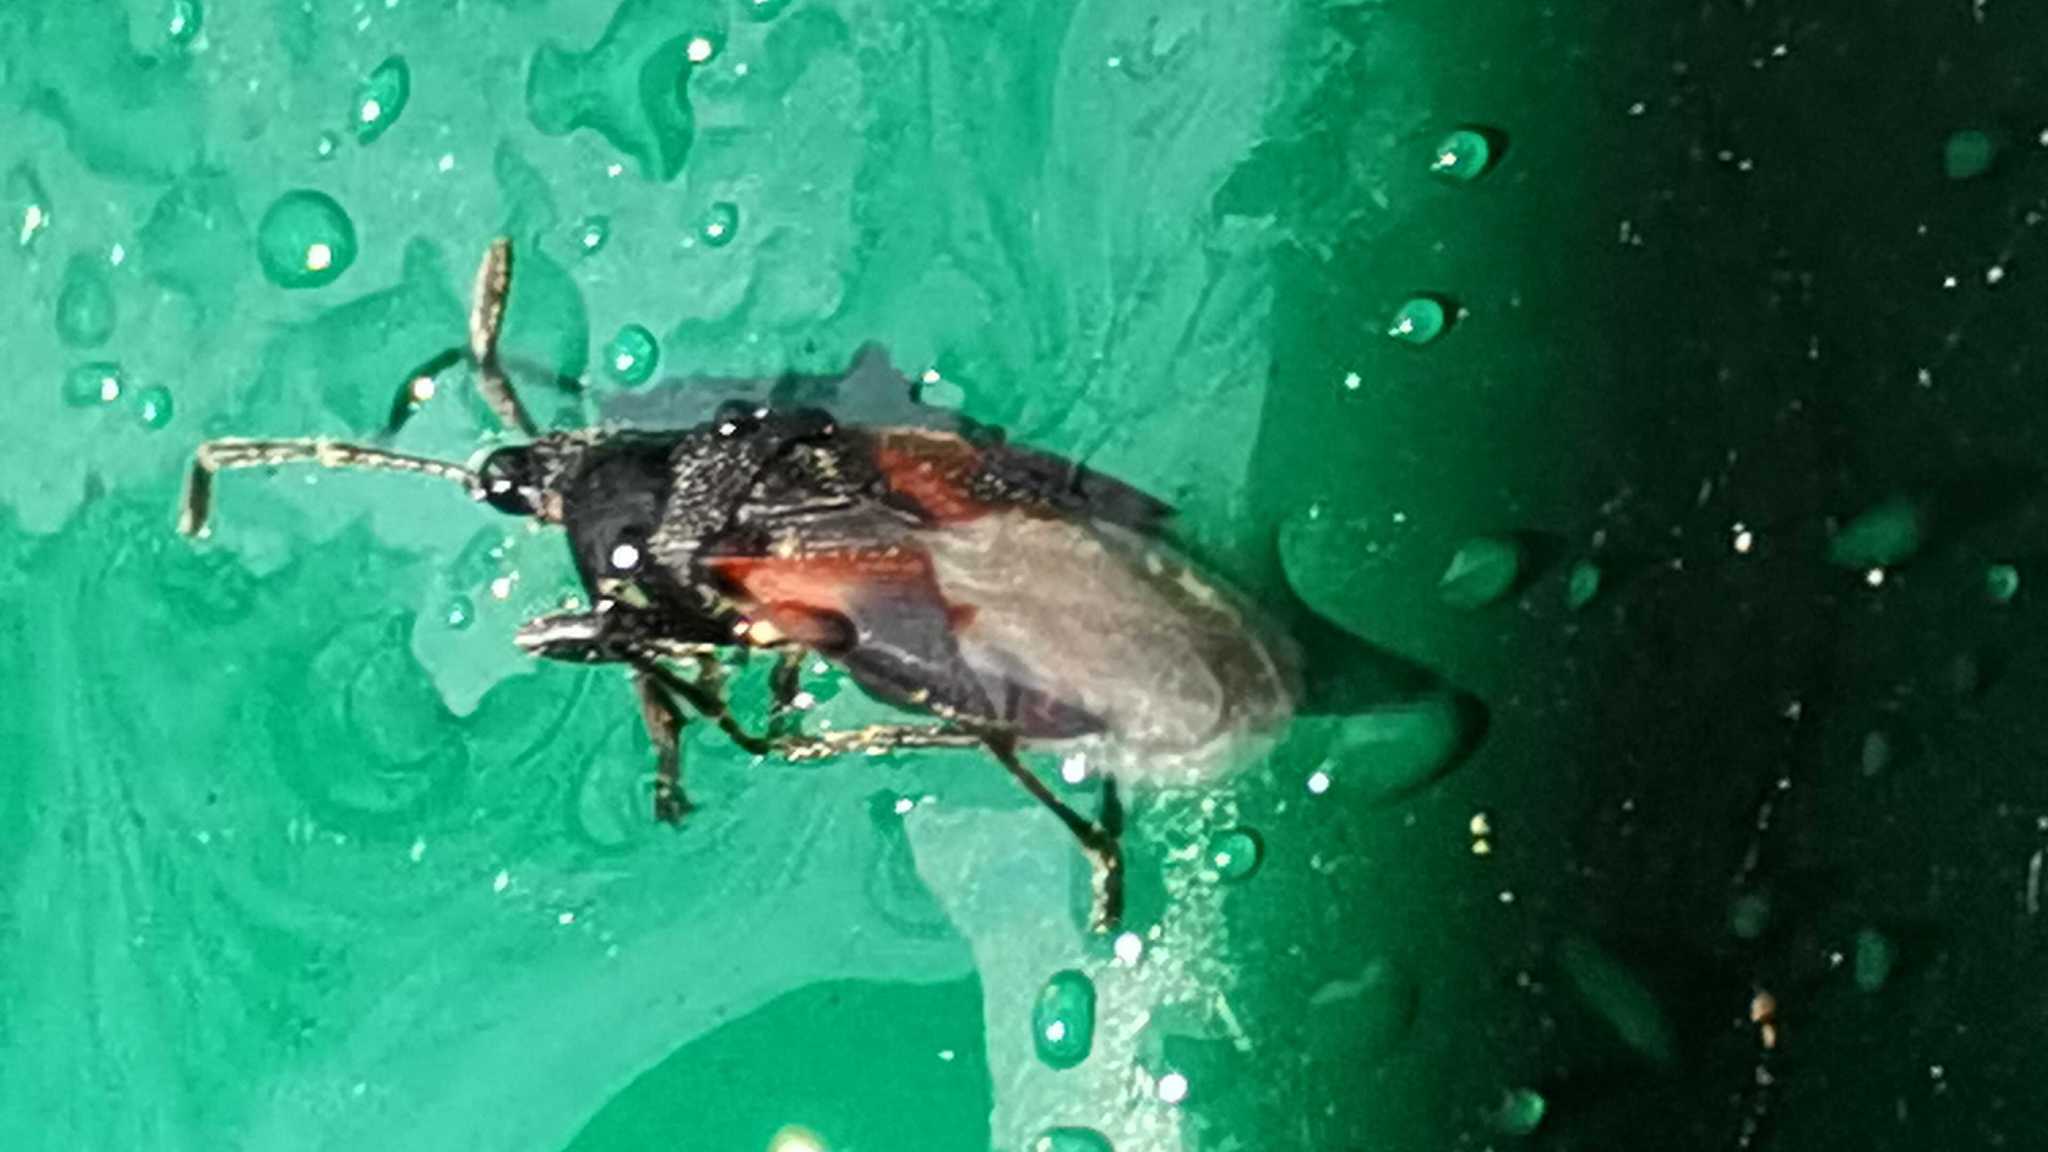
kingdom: Animalia
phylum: Arthropoda
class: Insecta
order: Hemiptera
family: Oxycarenidae
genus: Oxycarenus
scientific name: Oxycarenus lavaterae
